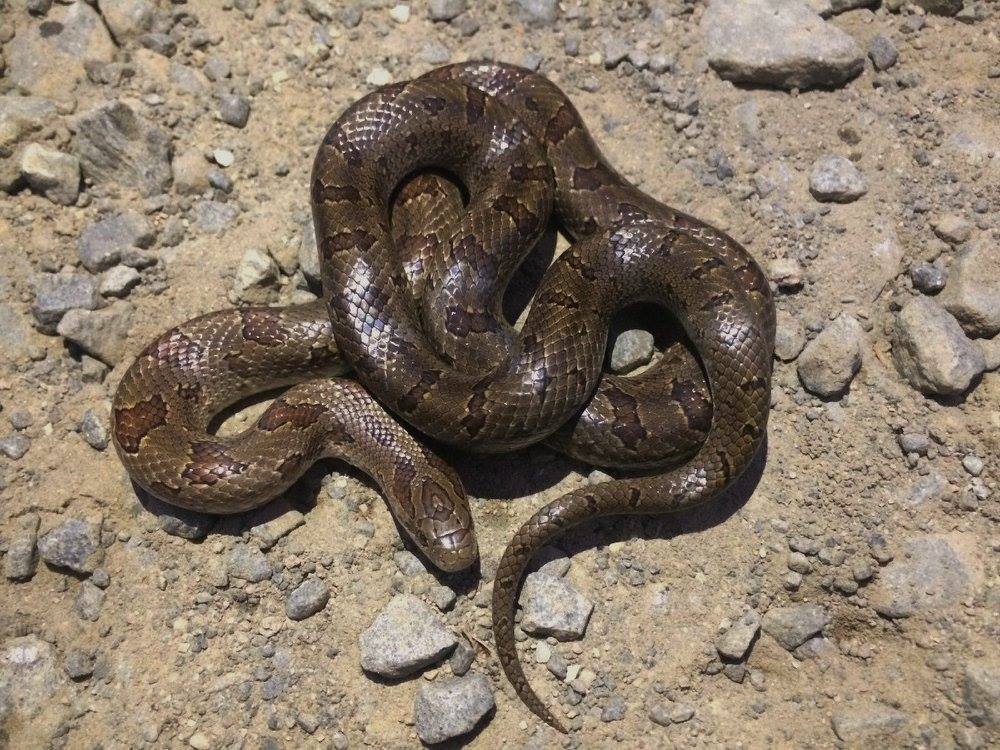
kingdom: Animalia
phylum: Chordata
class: Squamata
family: Colubridae
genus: Lampropeltis
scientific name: Lampropeltis calligaster
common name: Prairie kingsnake
